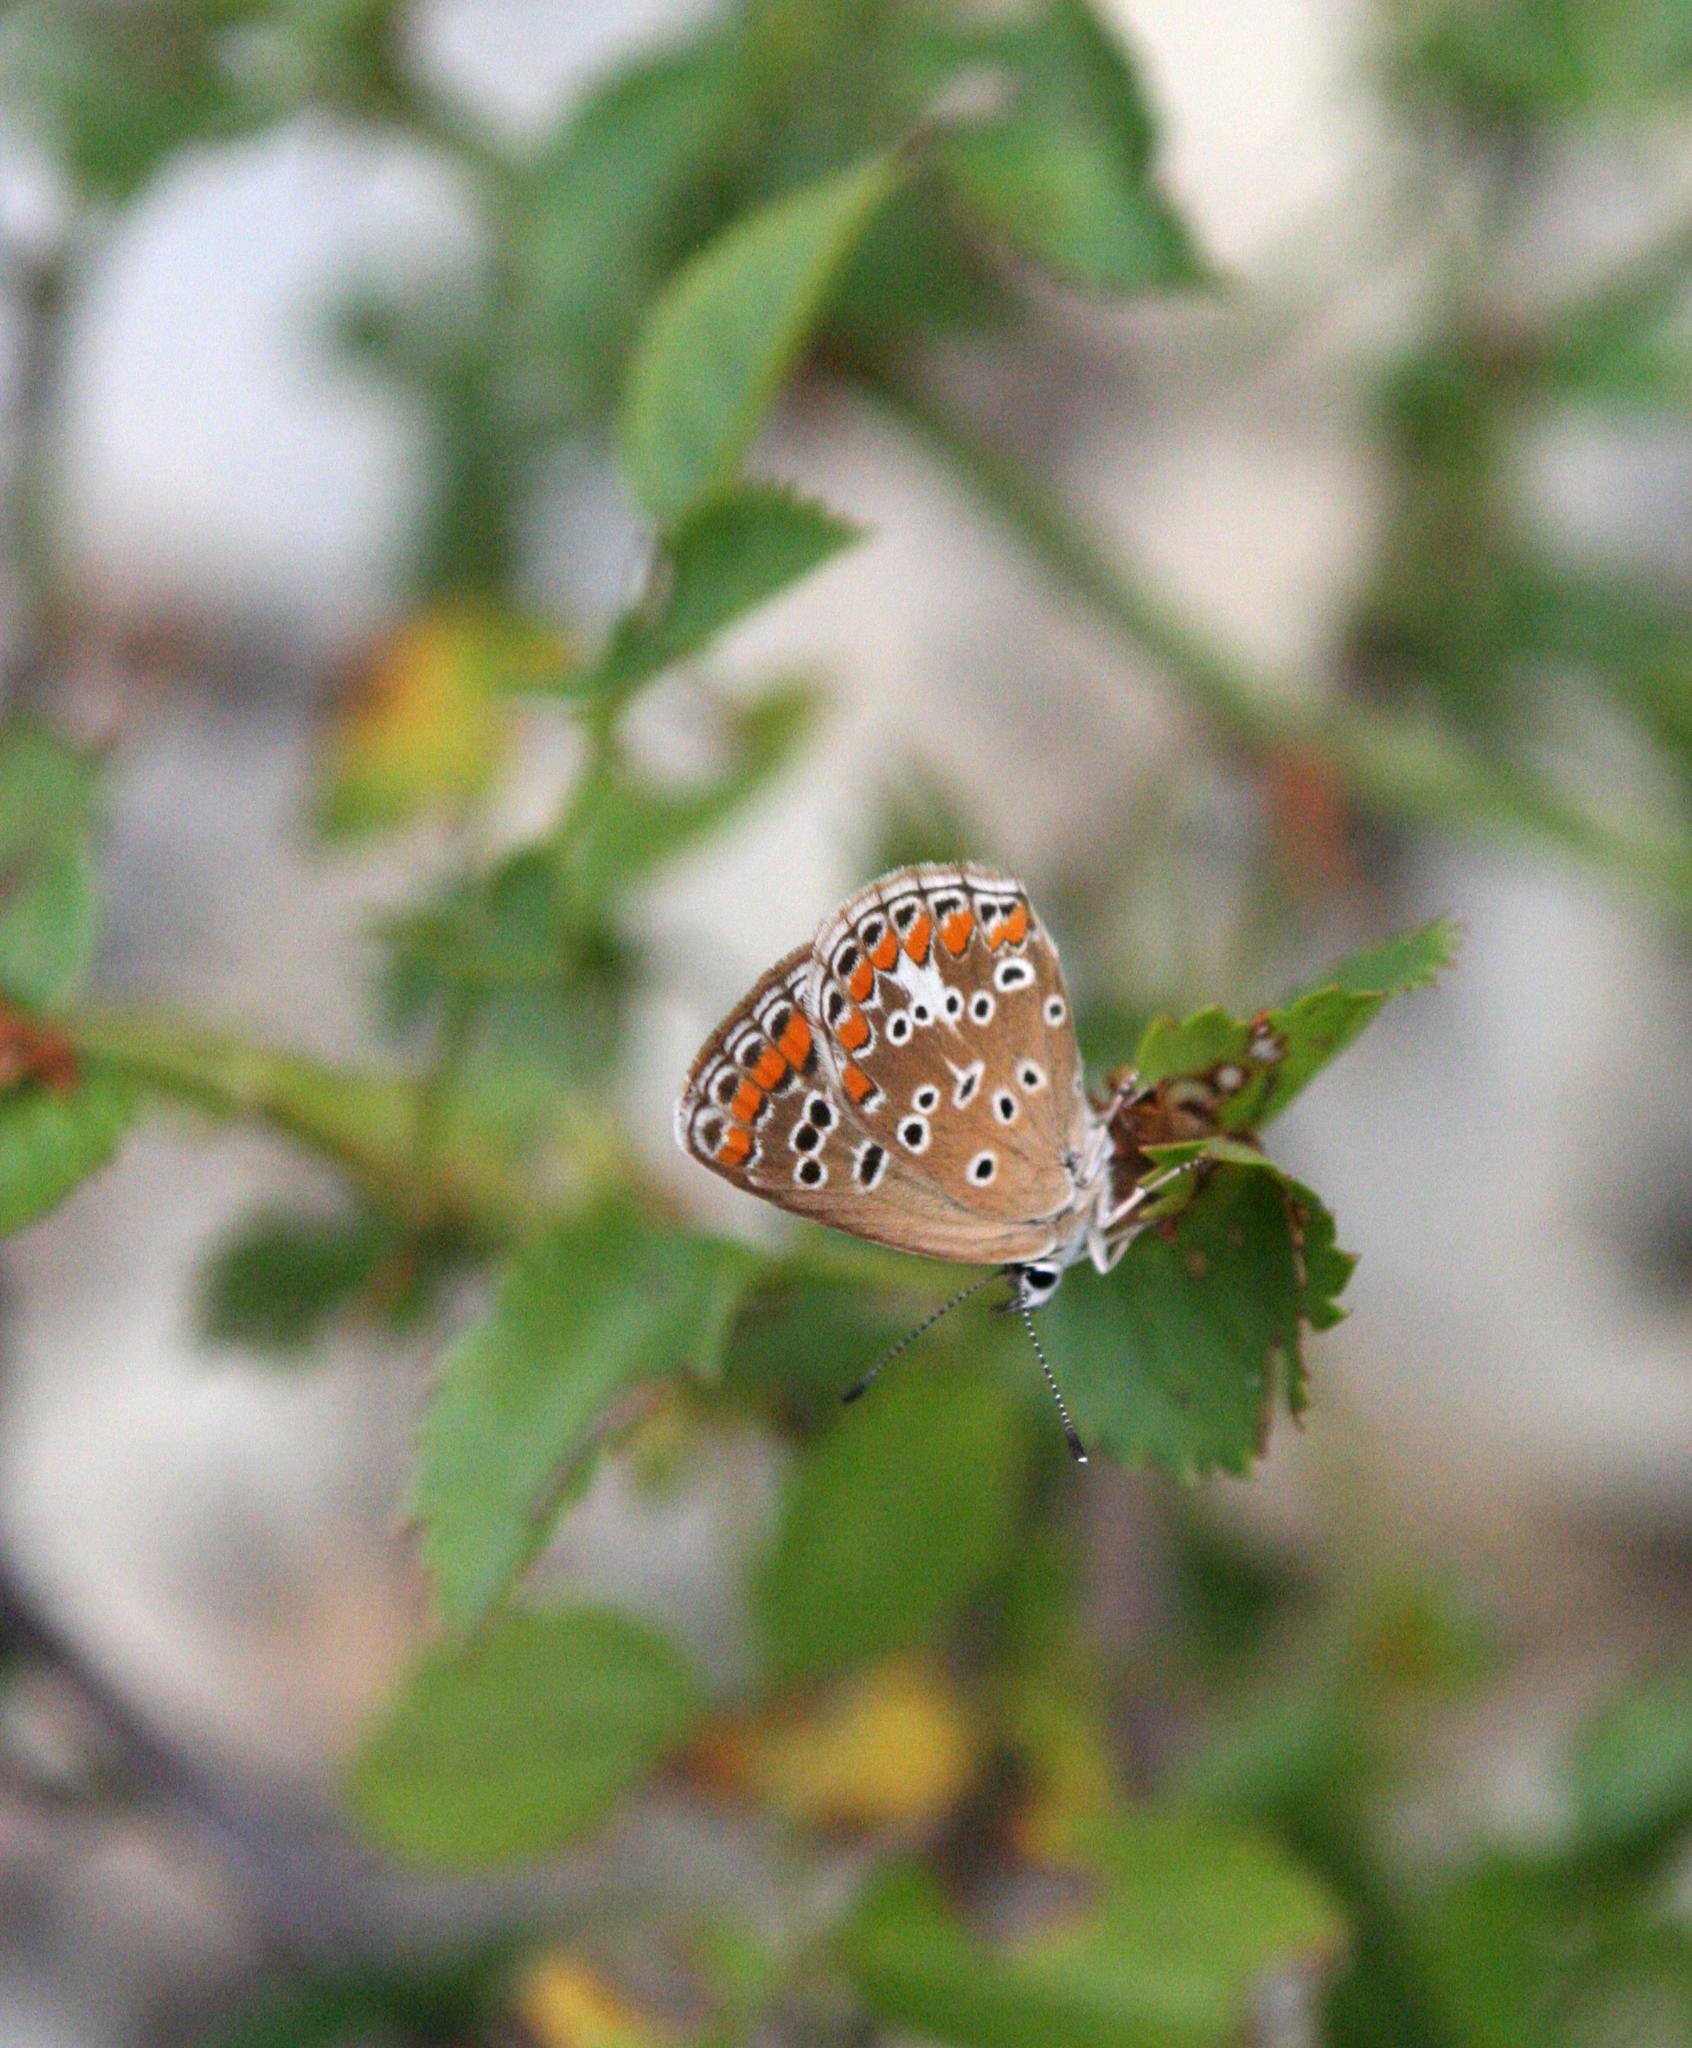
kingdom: Animalia
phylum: Arthropoda
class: Insecta
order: Lepidoptera
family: Lycaenidae
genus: Aricia
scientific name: Aricia agestis
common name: Brown argus
